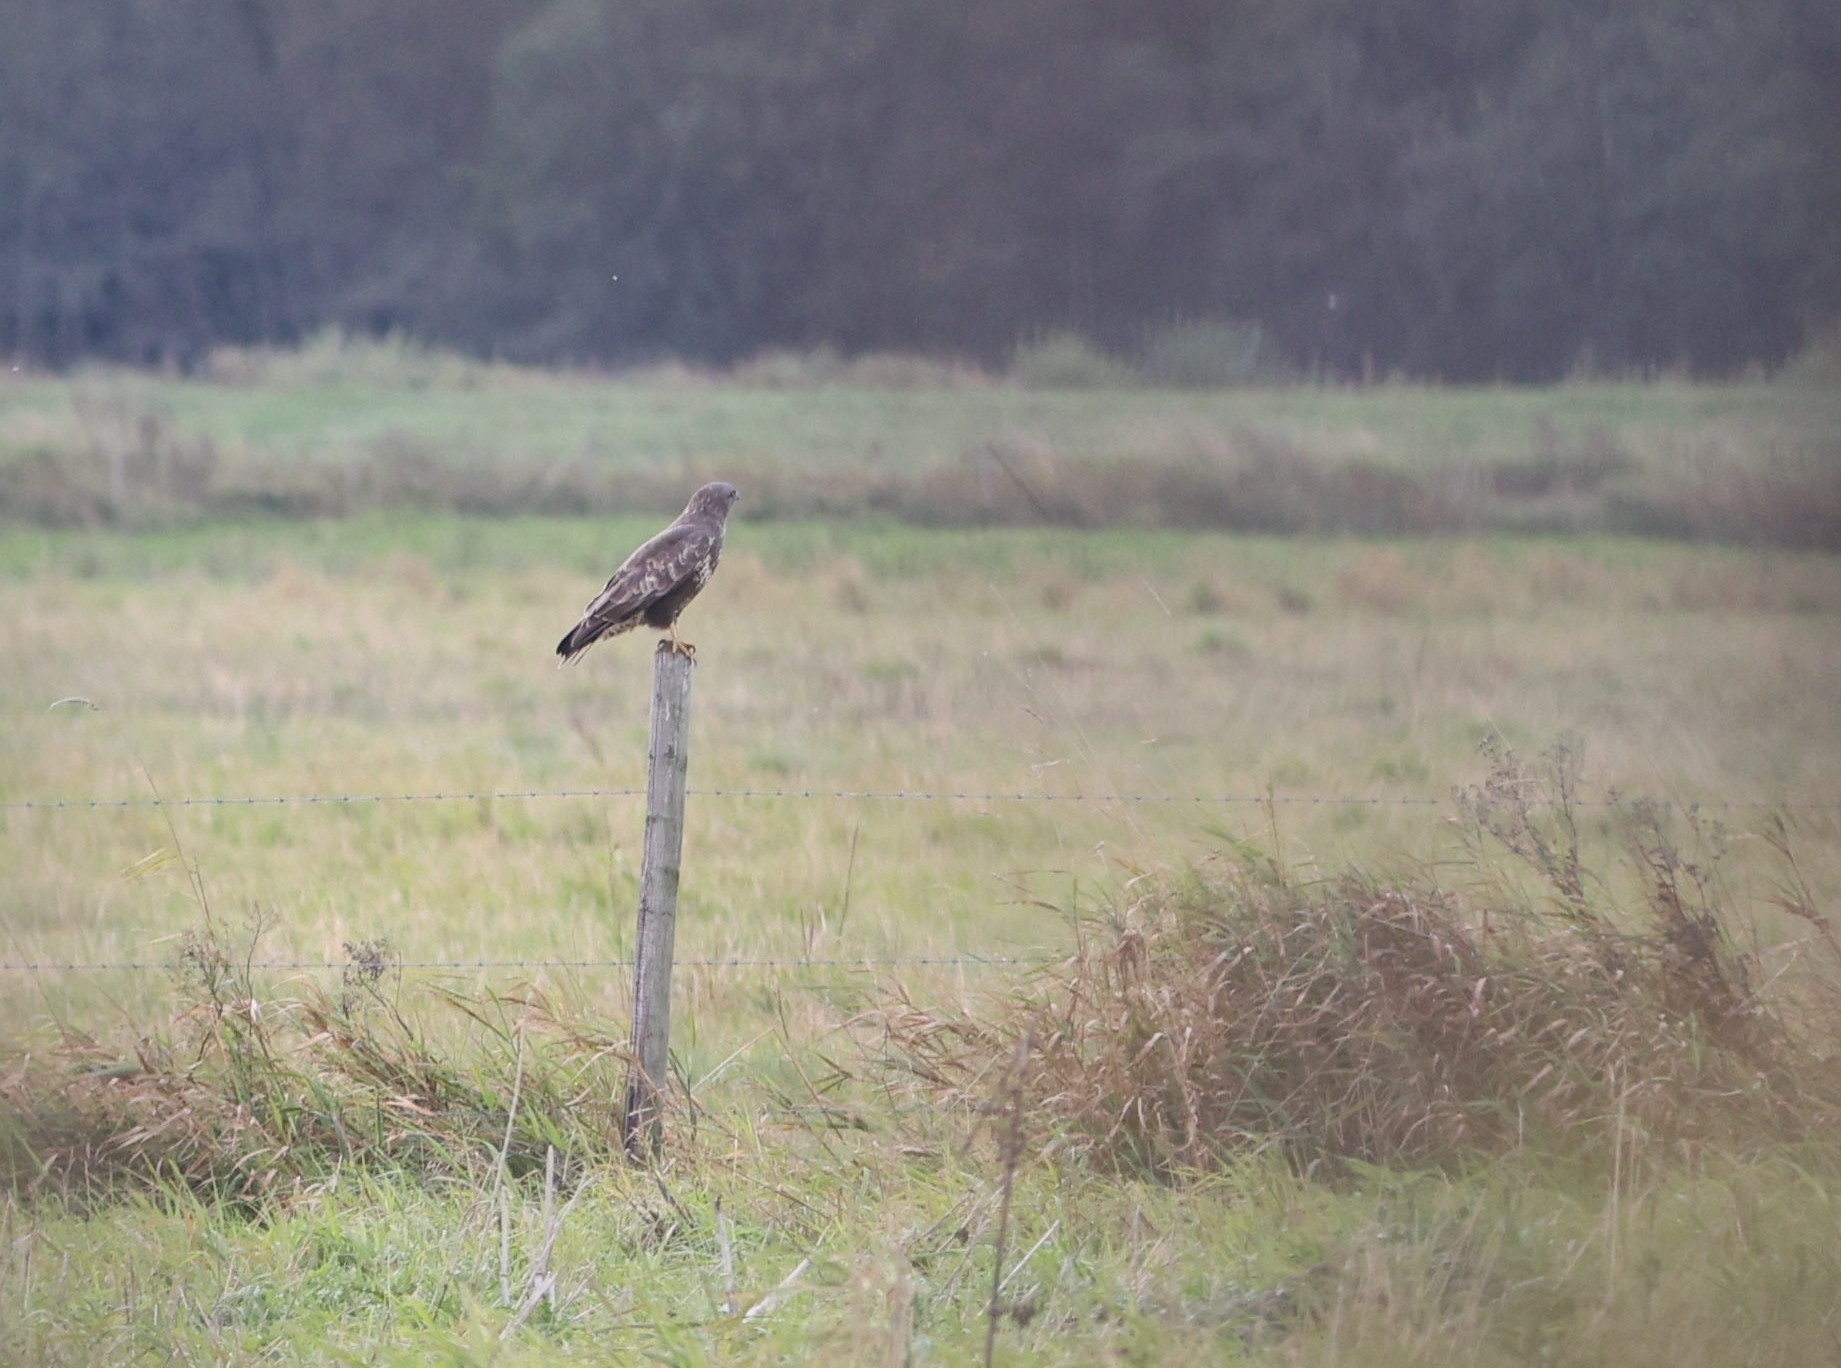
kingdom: Animalia
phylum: Chordata
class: Aves
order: Accipitriformes
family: Accipitridae
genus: Buteo
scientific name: Buteo buteo
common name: Common buzzard
